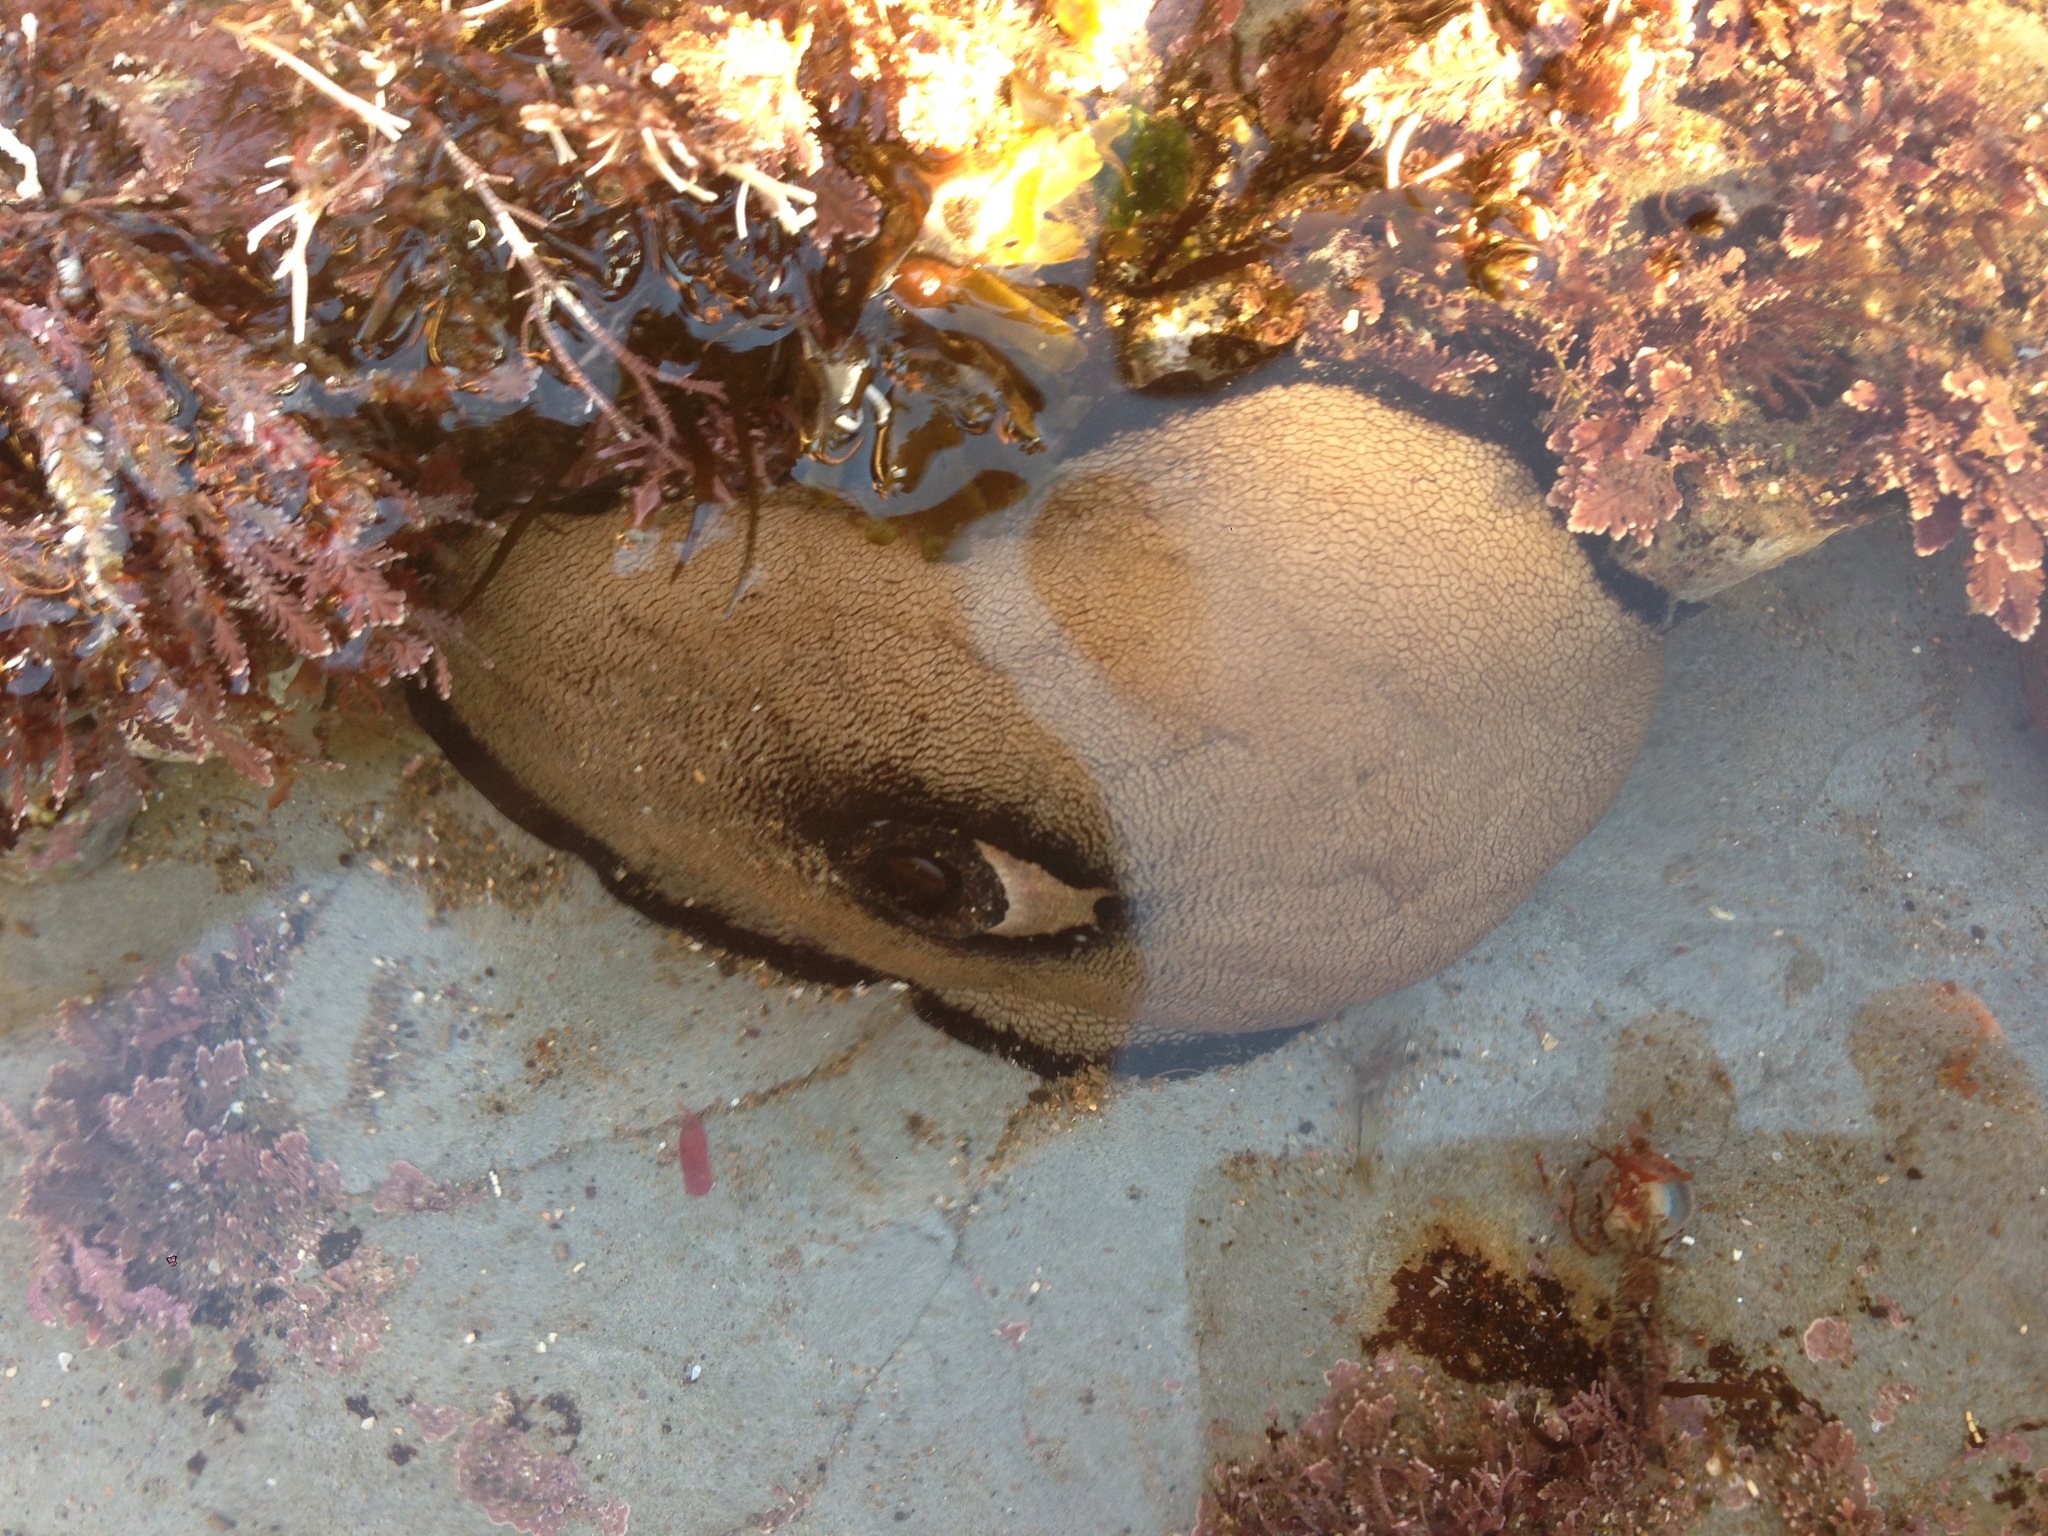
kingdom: Animalia
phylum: Mollusca
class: Gastropoda
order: Lepetellida
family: Fissurellidae
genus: Megathura
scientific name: Megathura crenulata
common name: Giant keyhole limpet
